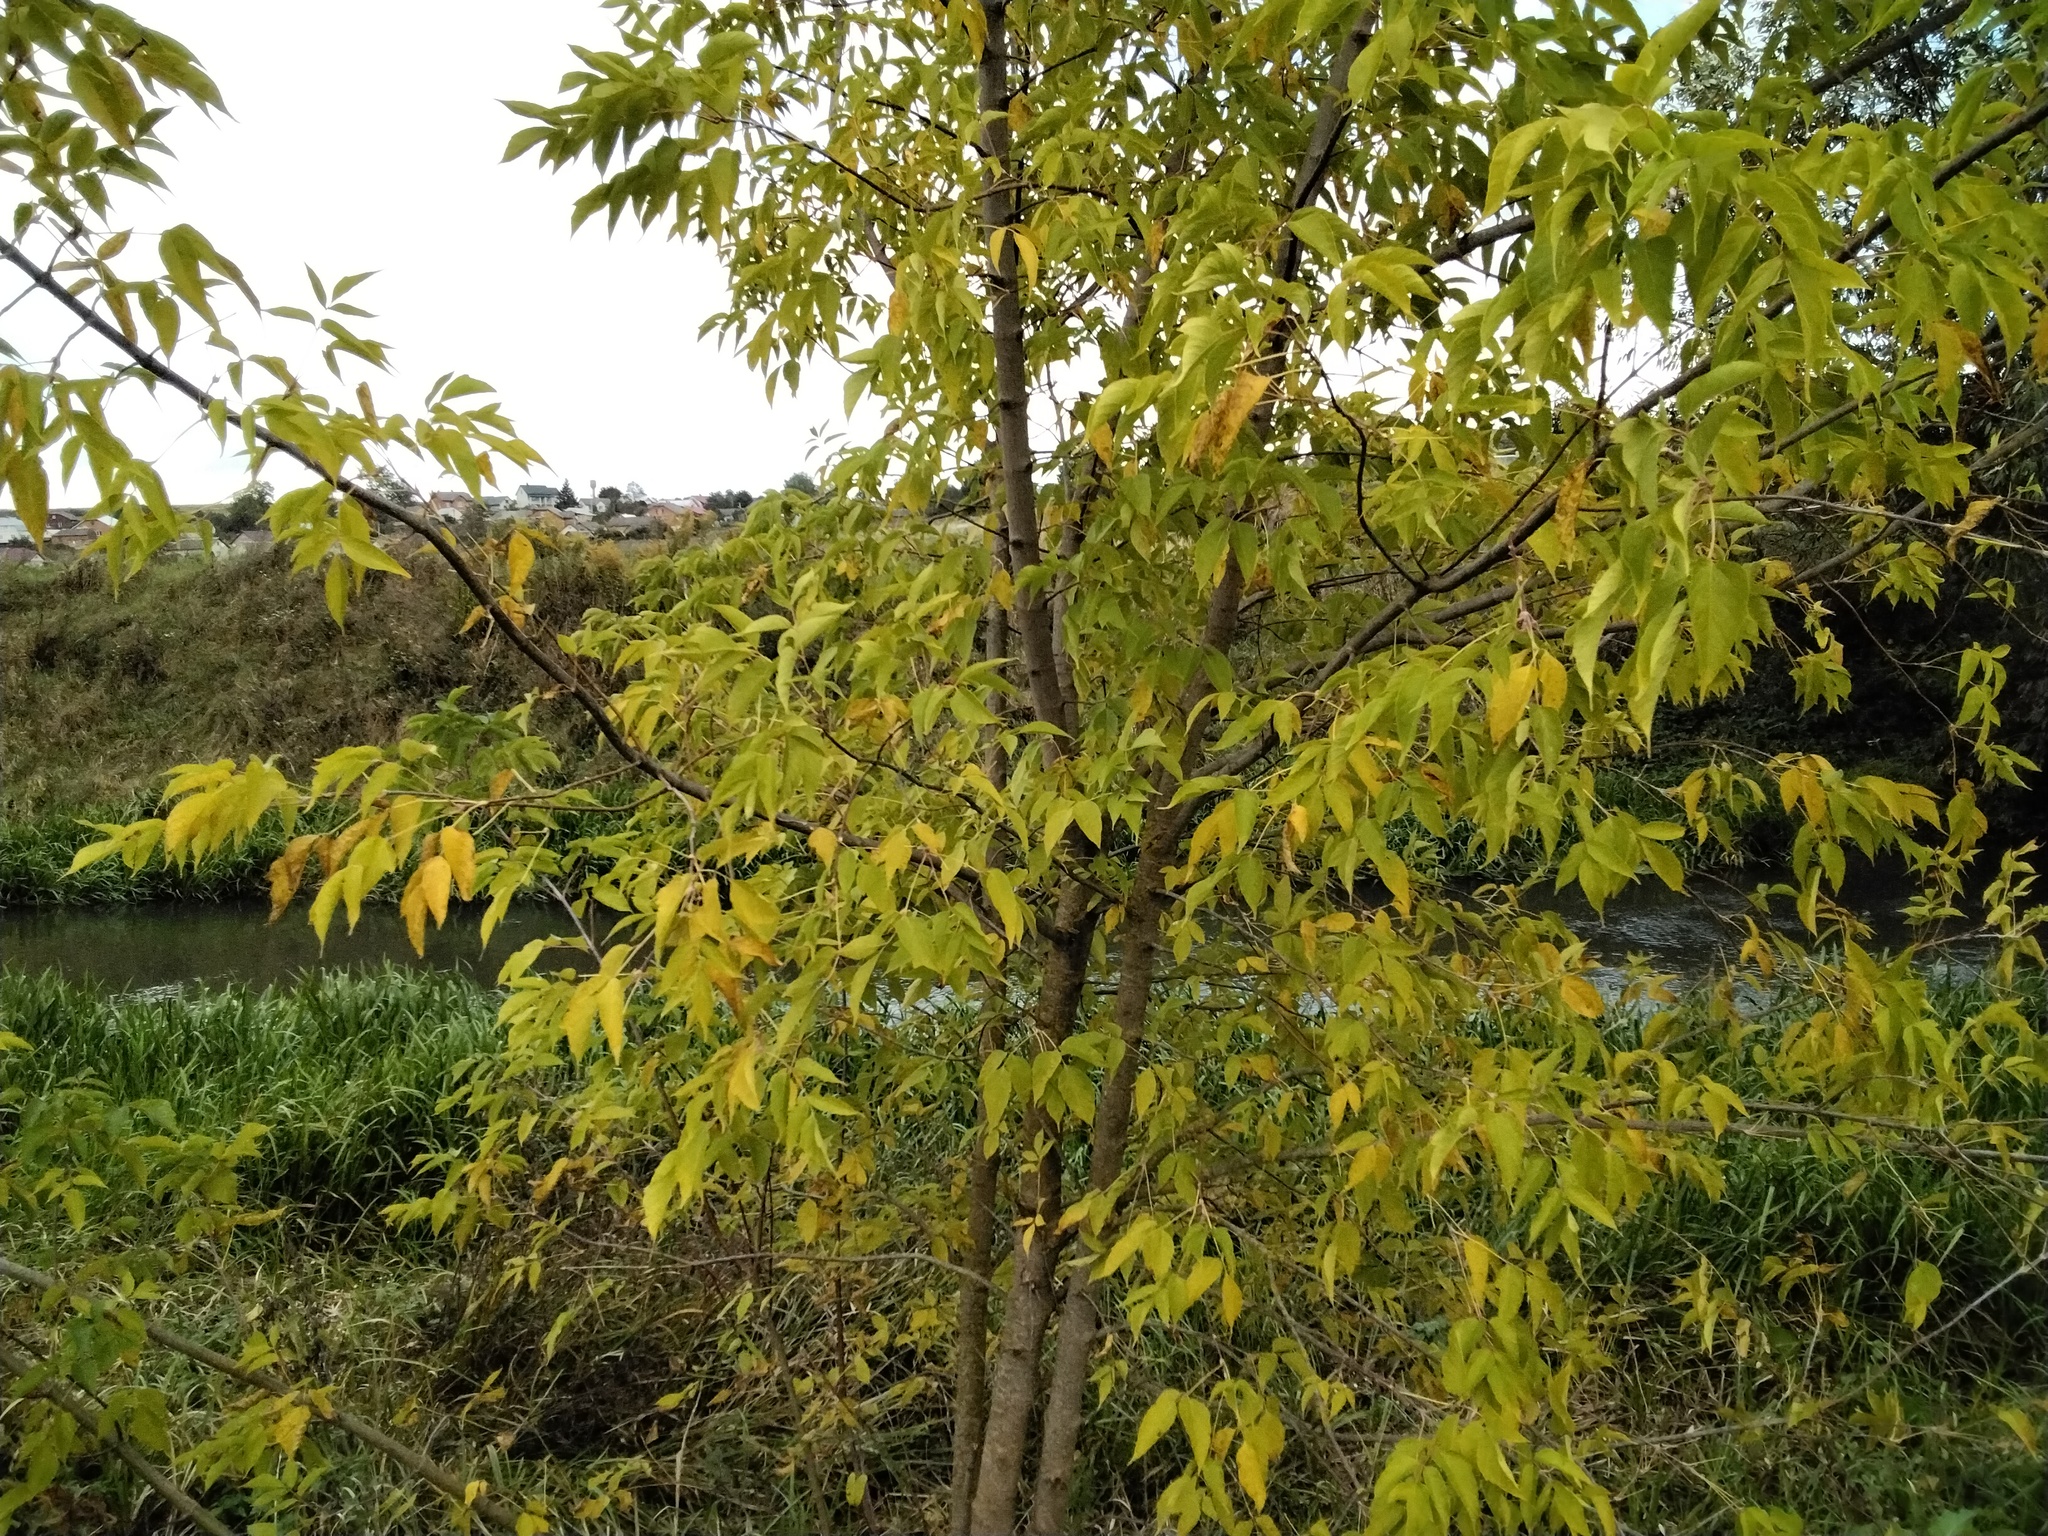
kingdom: Plantae
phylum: Tracheophyta
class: Magnoliopsida
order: Sapindales
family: Sapindaceae
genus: Acer
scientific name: Acer negundo
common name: Ashleaf maple
